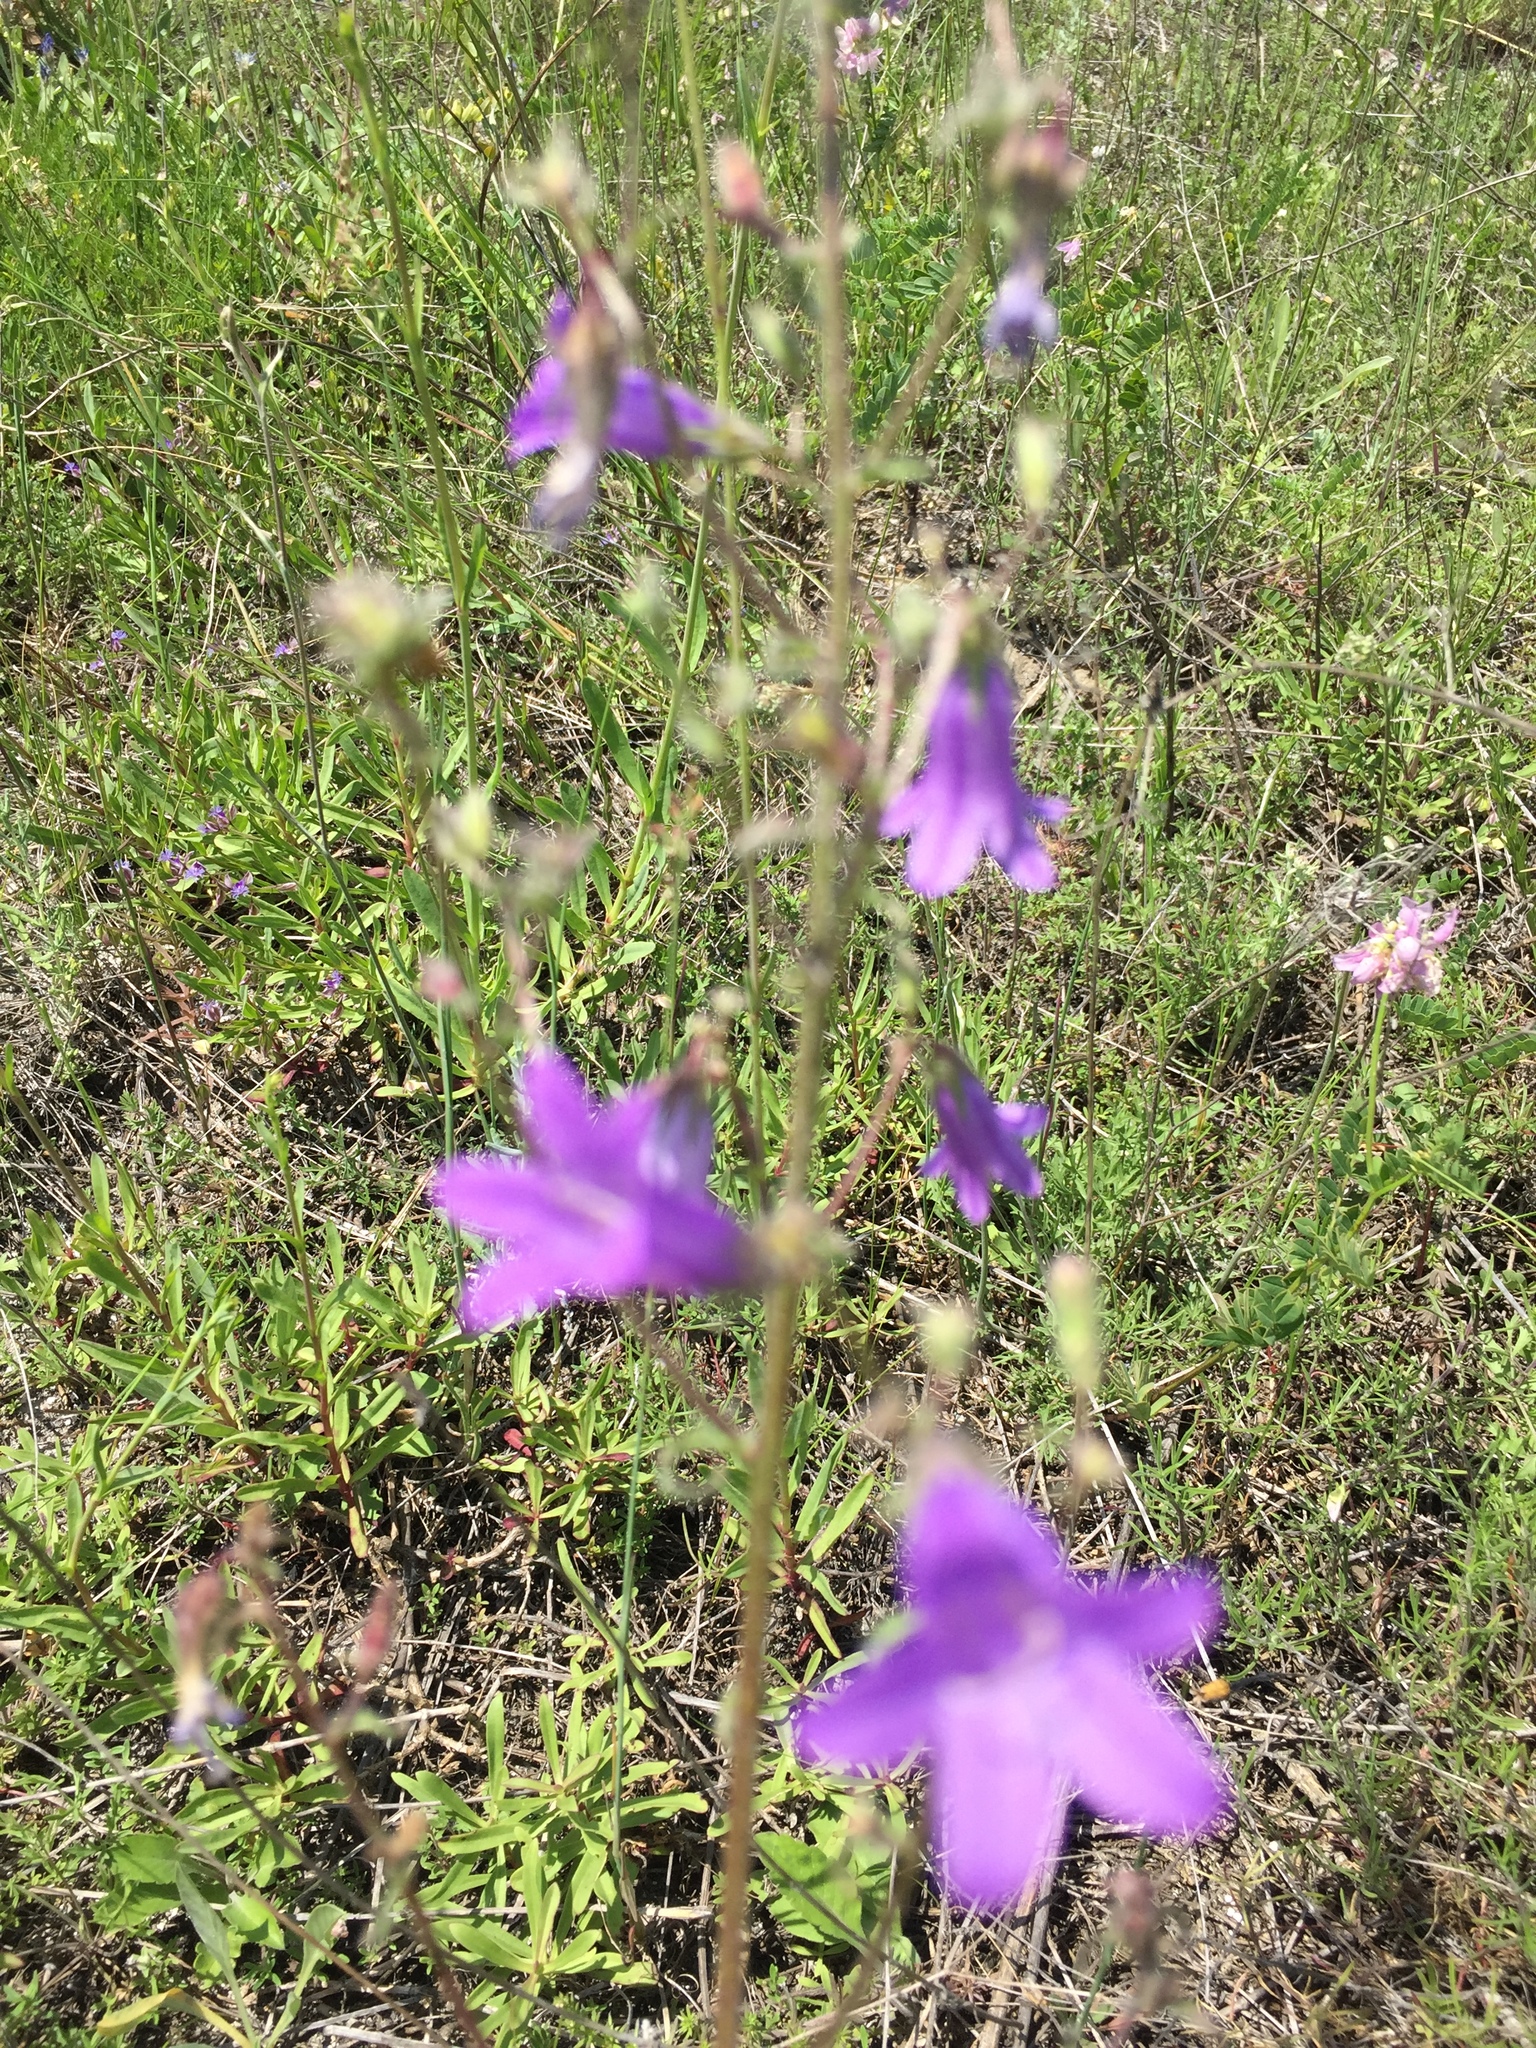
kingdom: Plantae
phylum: Tracheophyta
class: Magnoliopsida
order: Asterales
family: Campanulaceae
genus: Campanula
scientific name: Campanula sibirica
